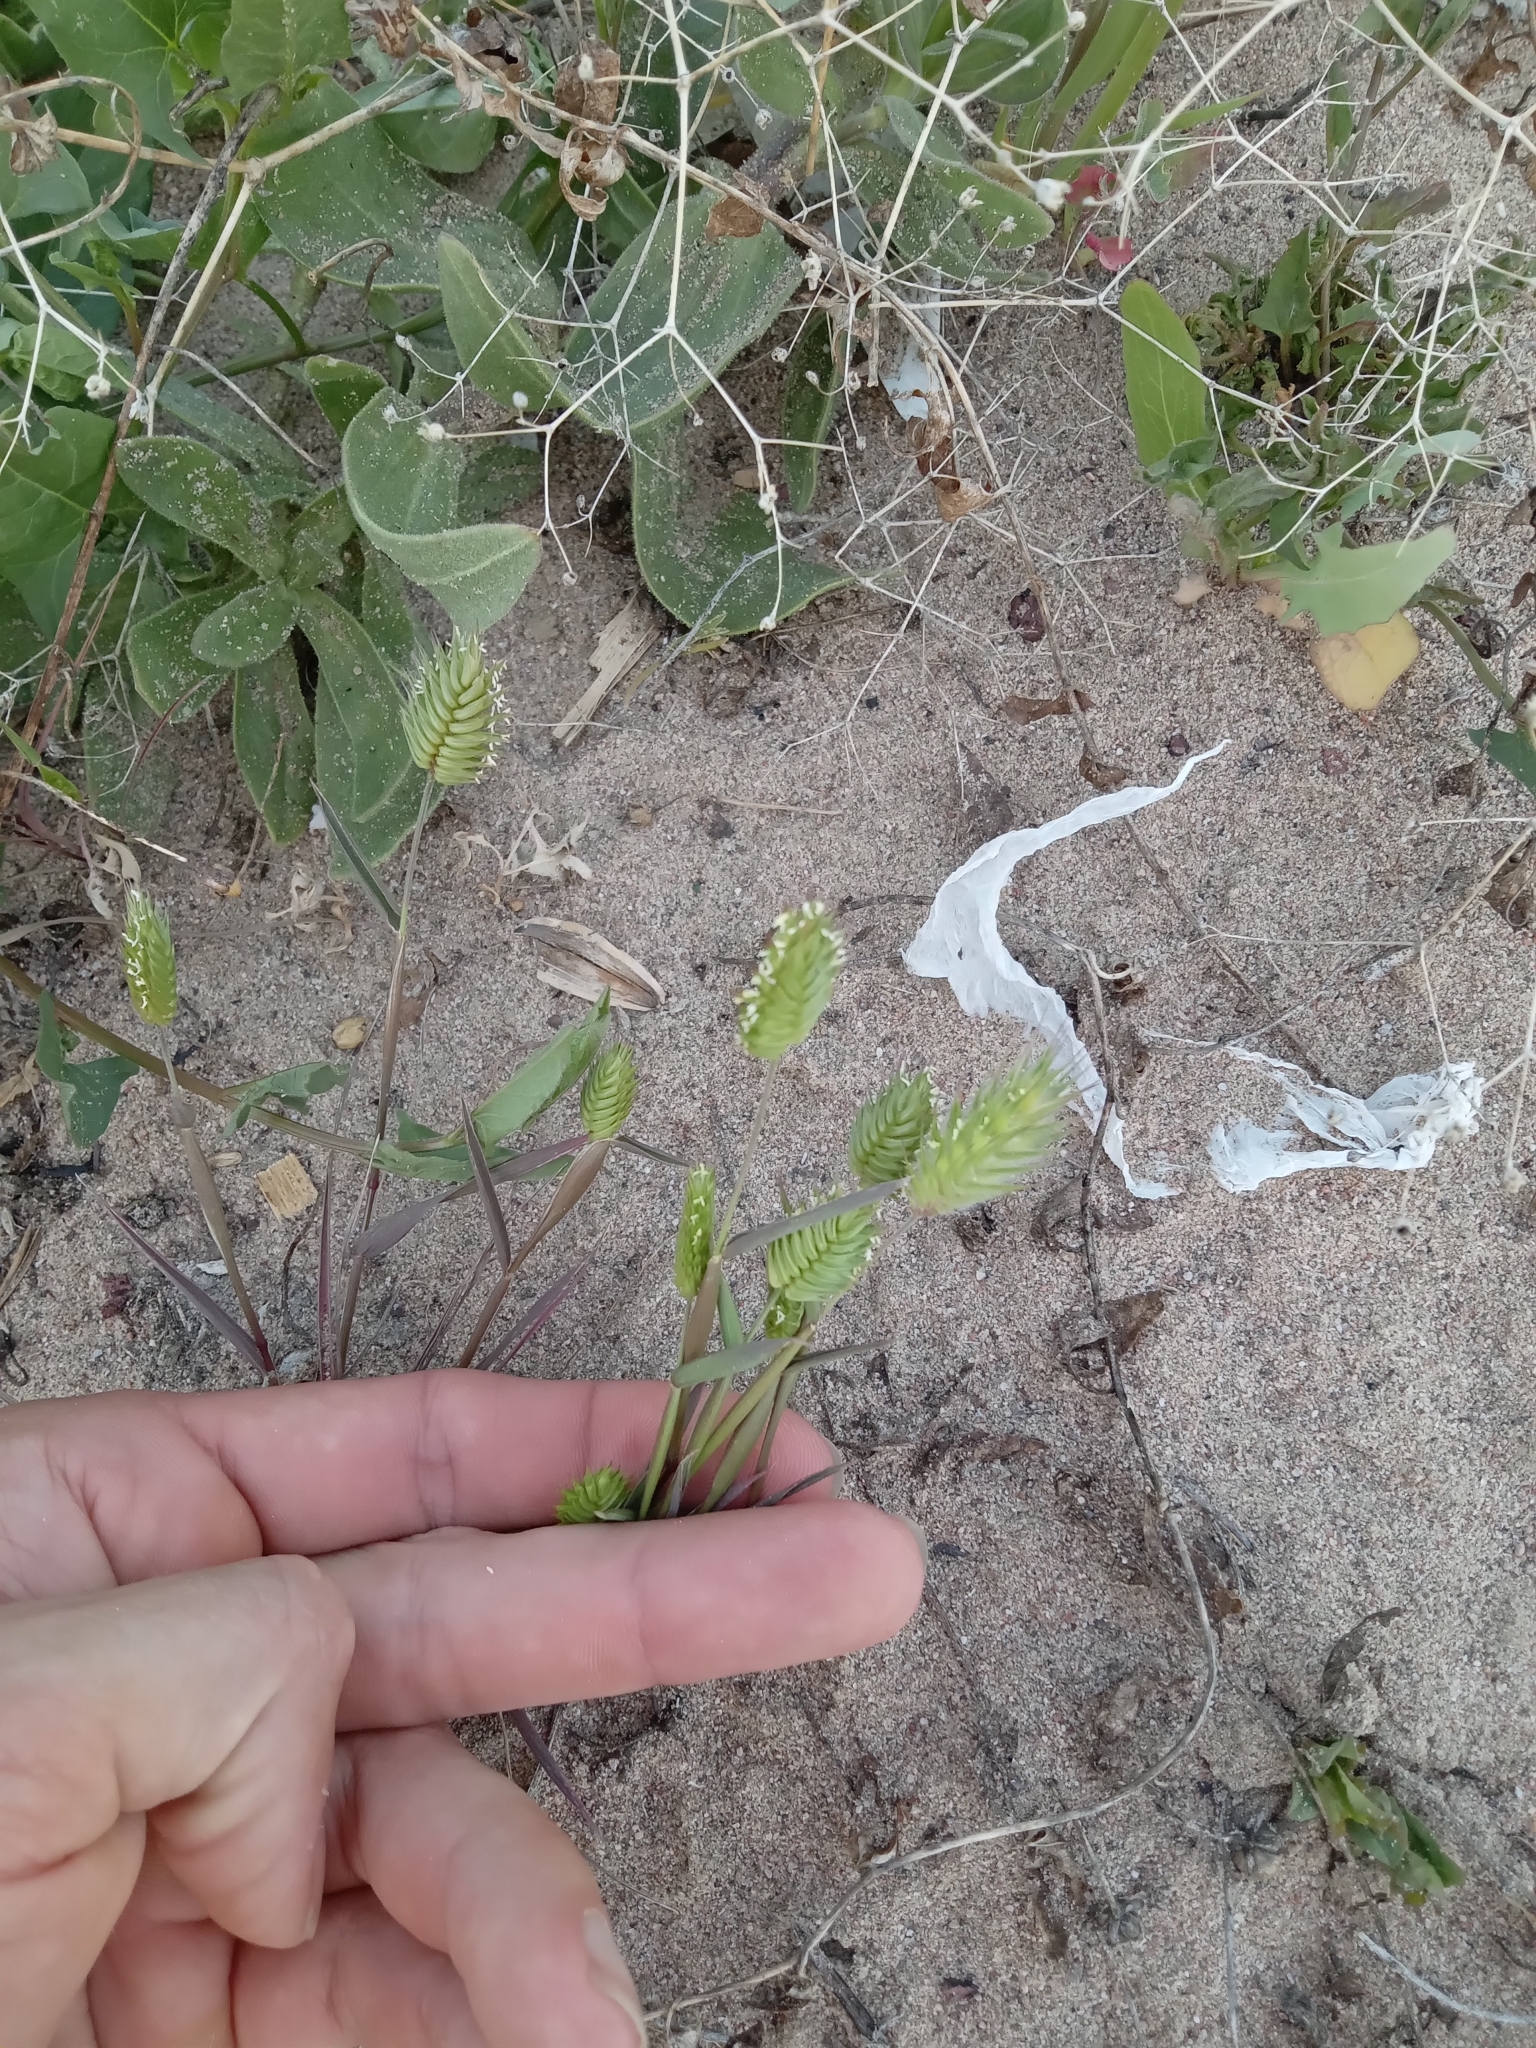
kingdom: Plantae
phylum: Tracheophyta
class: Liliopsida
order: Poales
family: Poaceae
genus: Eremopyrum
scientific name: Eremopyrum triticeum
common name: Annual wheatgrass
